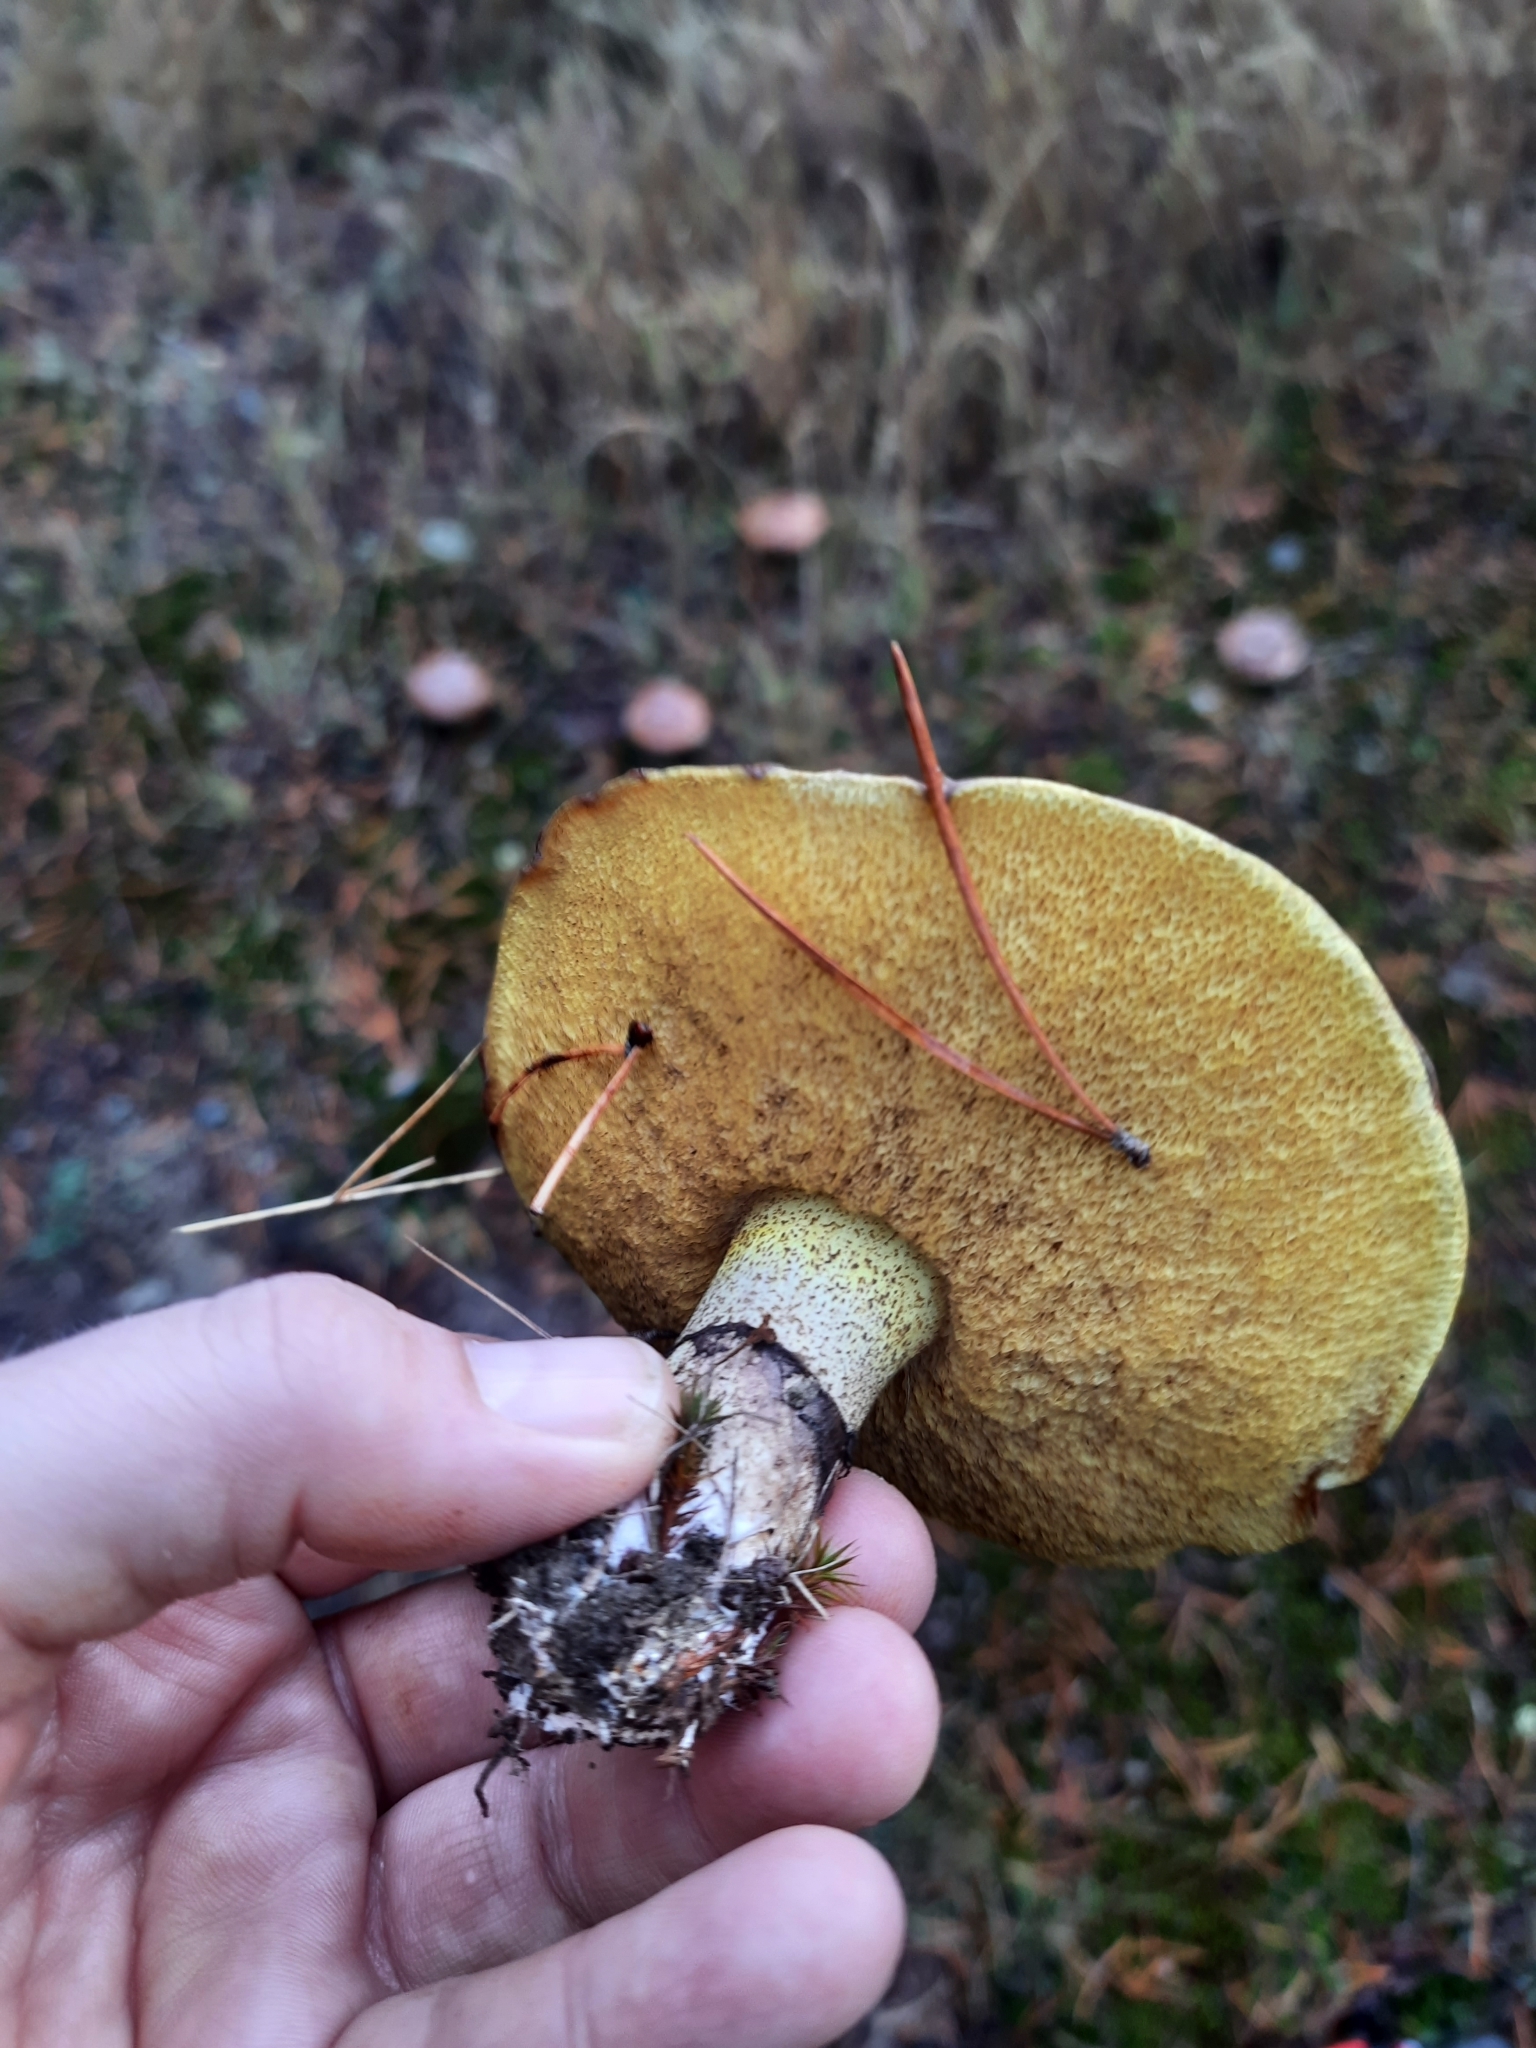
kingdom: Fungi
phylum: Basidiomycota
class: Agaricomycetes
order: Boletales
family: Suillaceae
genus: Suillus
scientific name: Suillus luteus
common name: Slippery jack
